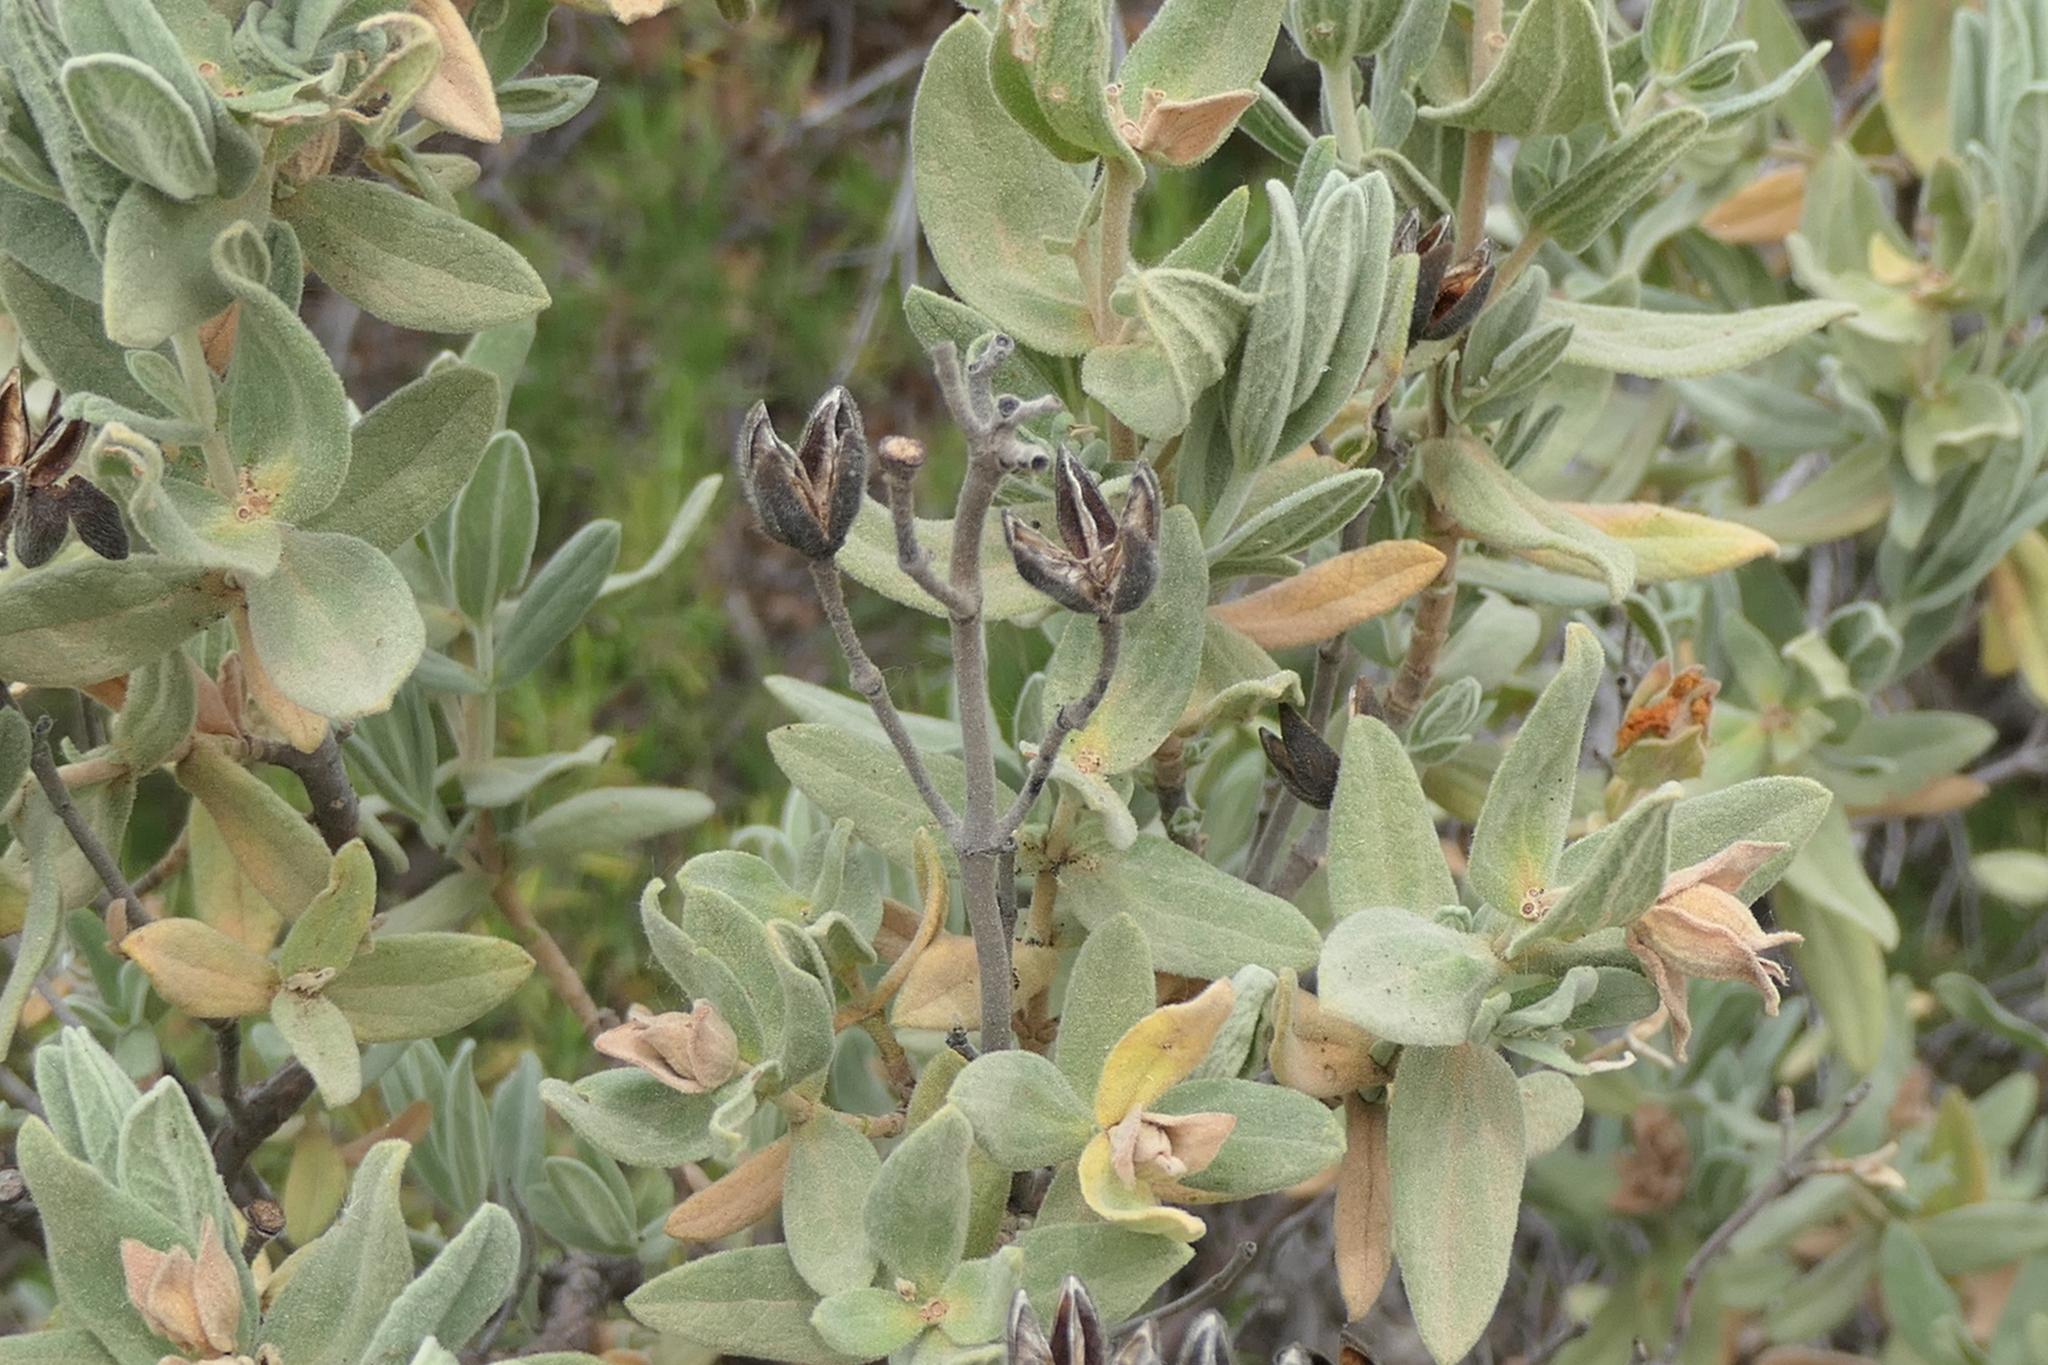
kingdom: Plantae
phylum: Tracheophyta
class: Magnoliopsida
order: Malvales
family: Cistaceae
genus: Cistus
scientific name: Cistus albidus
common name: White-leaf rock-rose
